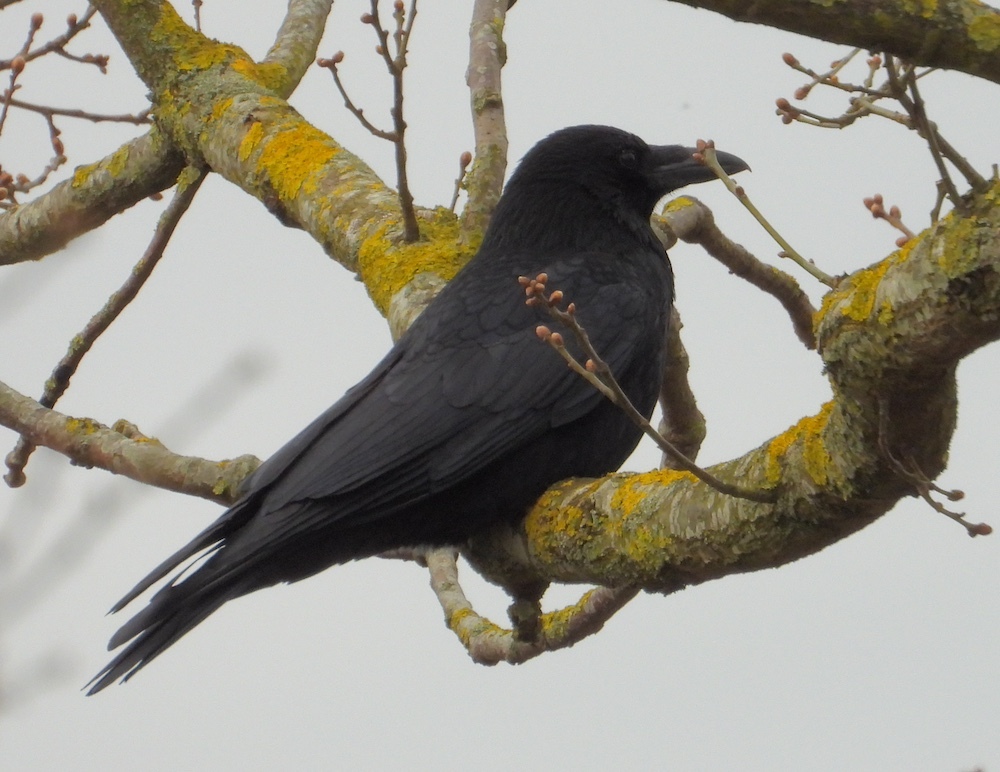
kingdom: Animalia
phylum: Chordata
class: Aves
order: Passeriformes
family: Corvidae
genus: Corvus
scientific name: Corvus corone
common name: Carrion crow
